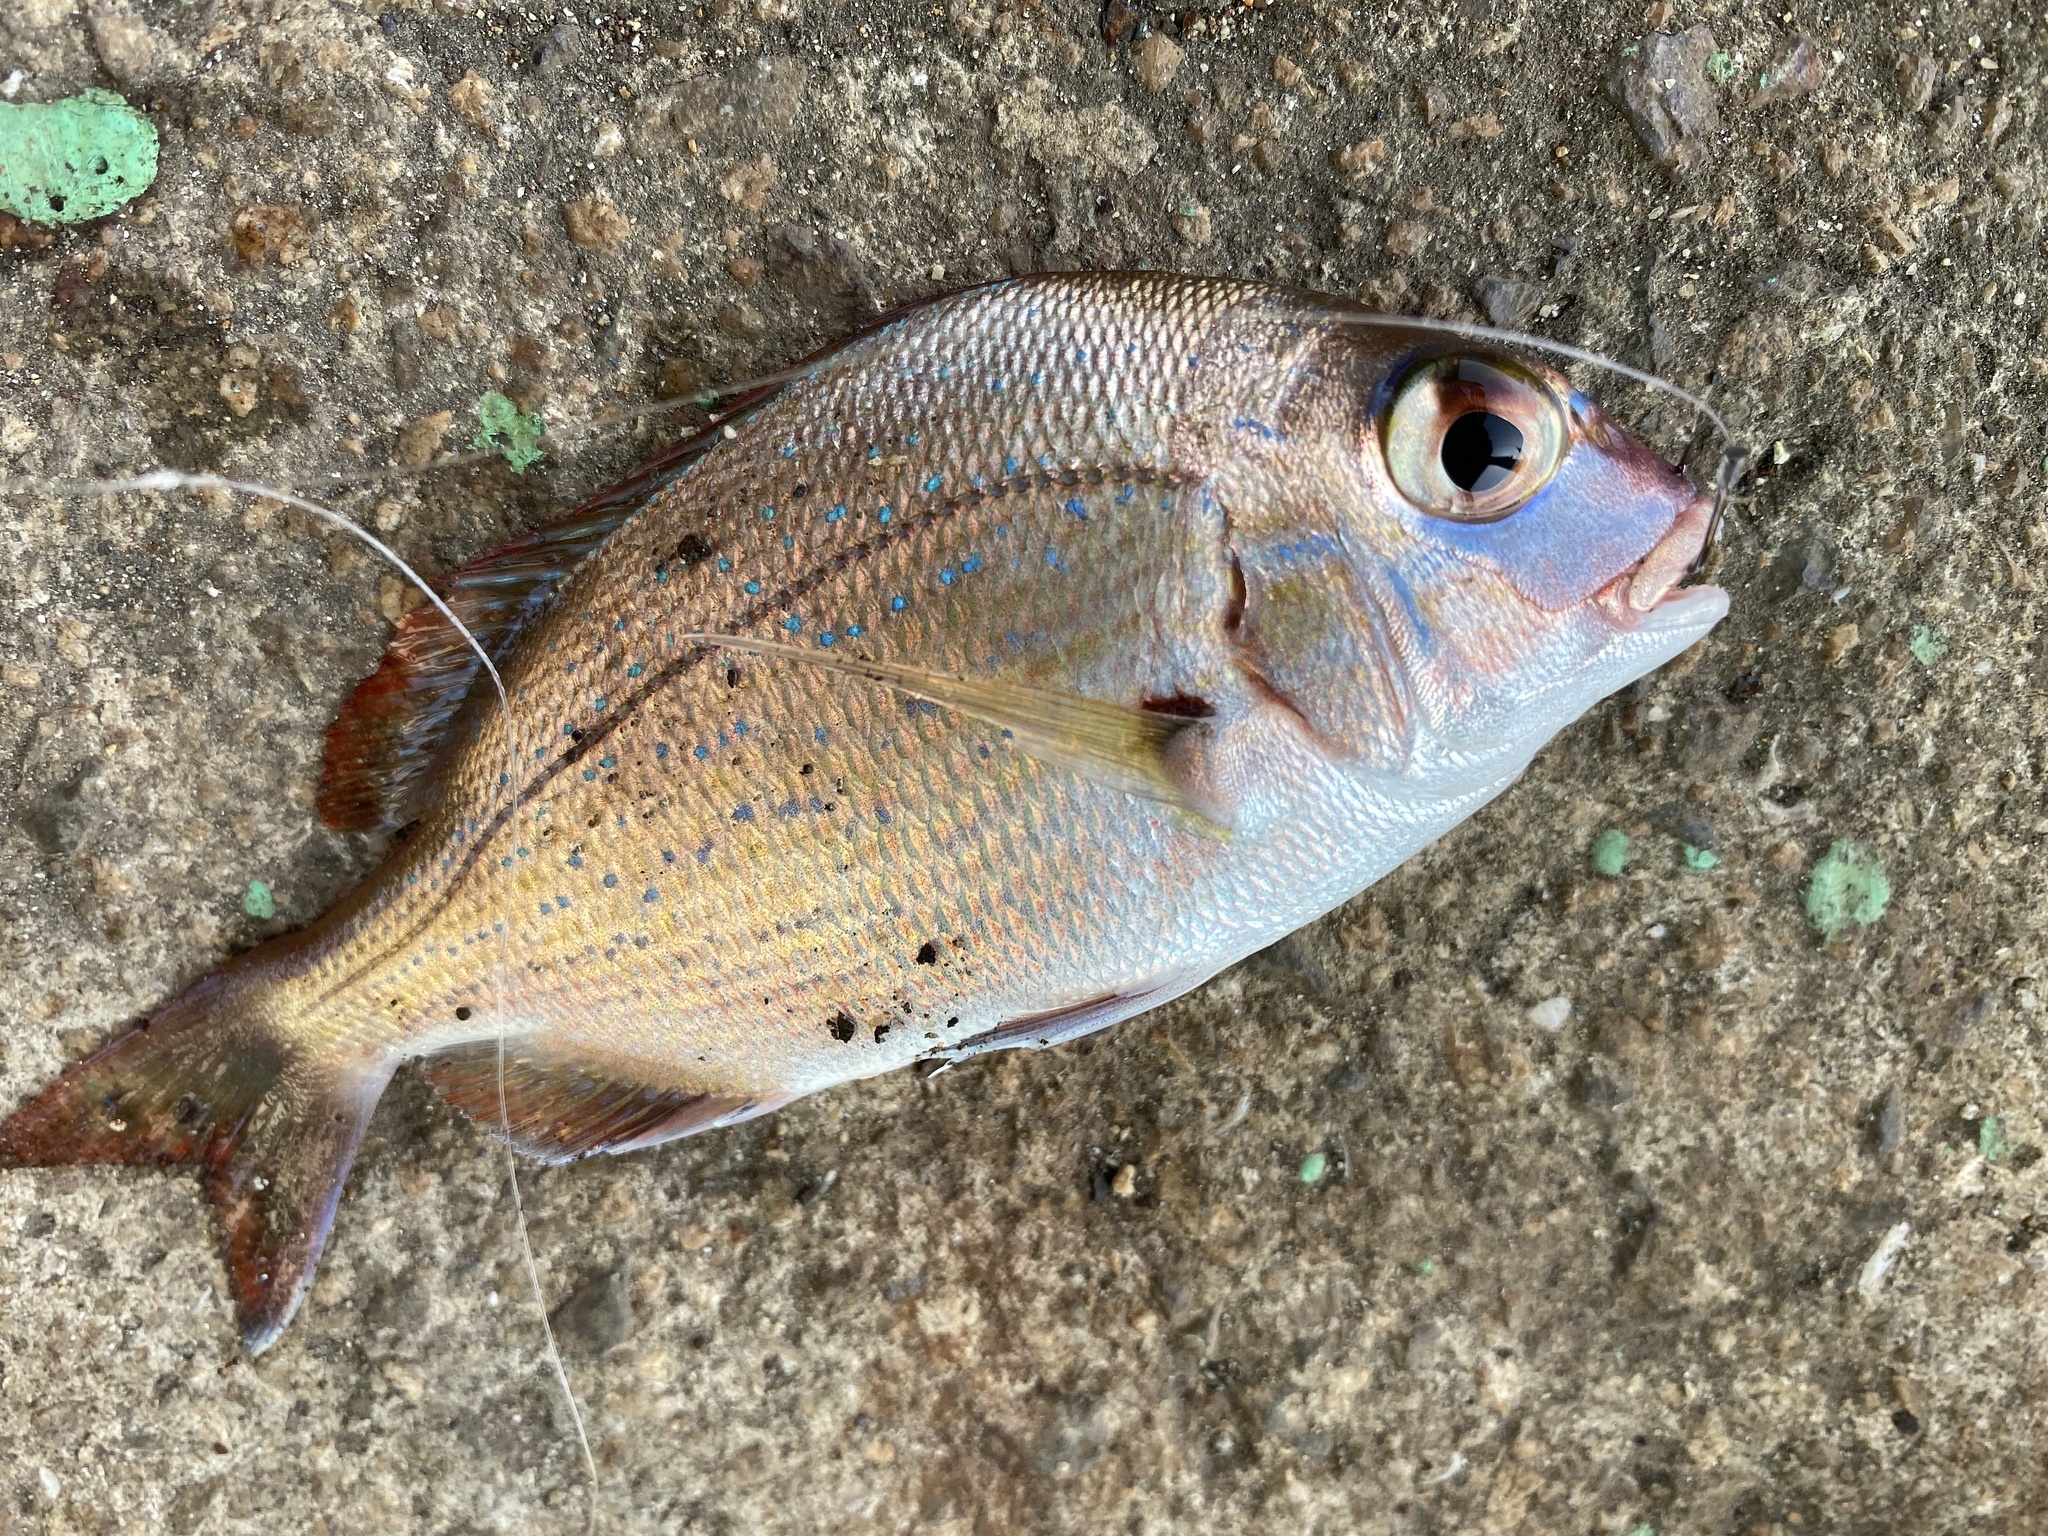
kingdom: Animalia
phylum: Chordata
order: Perciformes
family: Sparidae
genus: Pagrus
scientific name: Pagrus major
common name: Red sea bream
